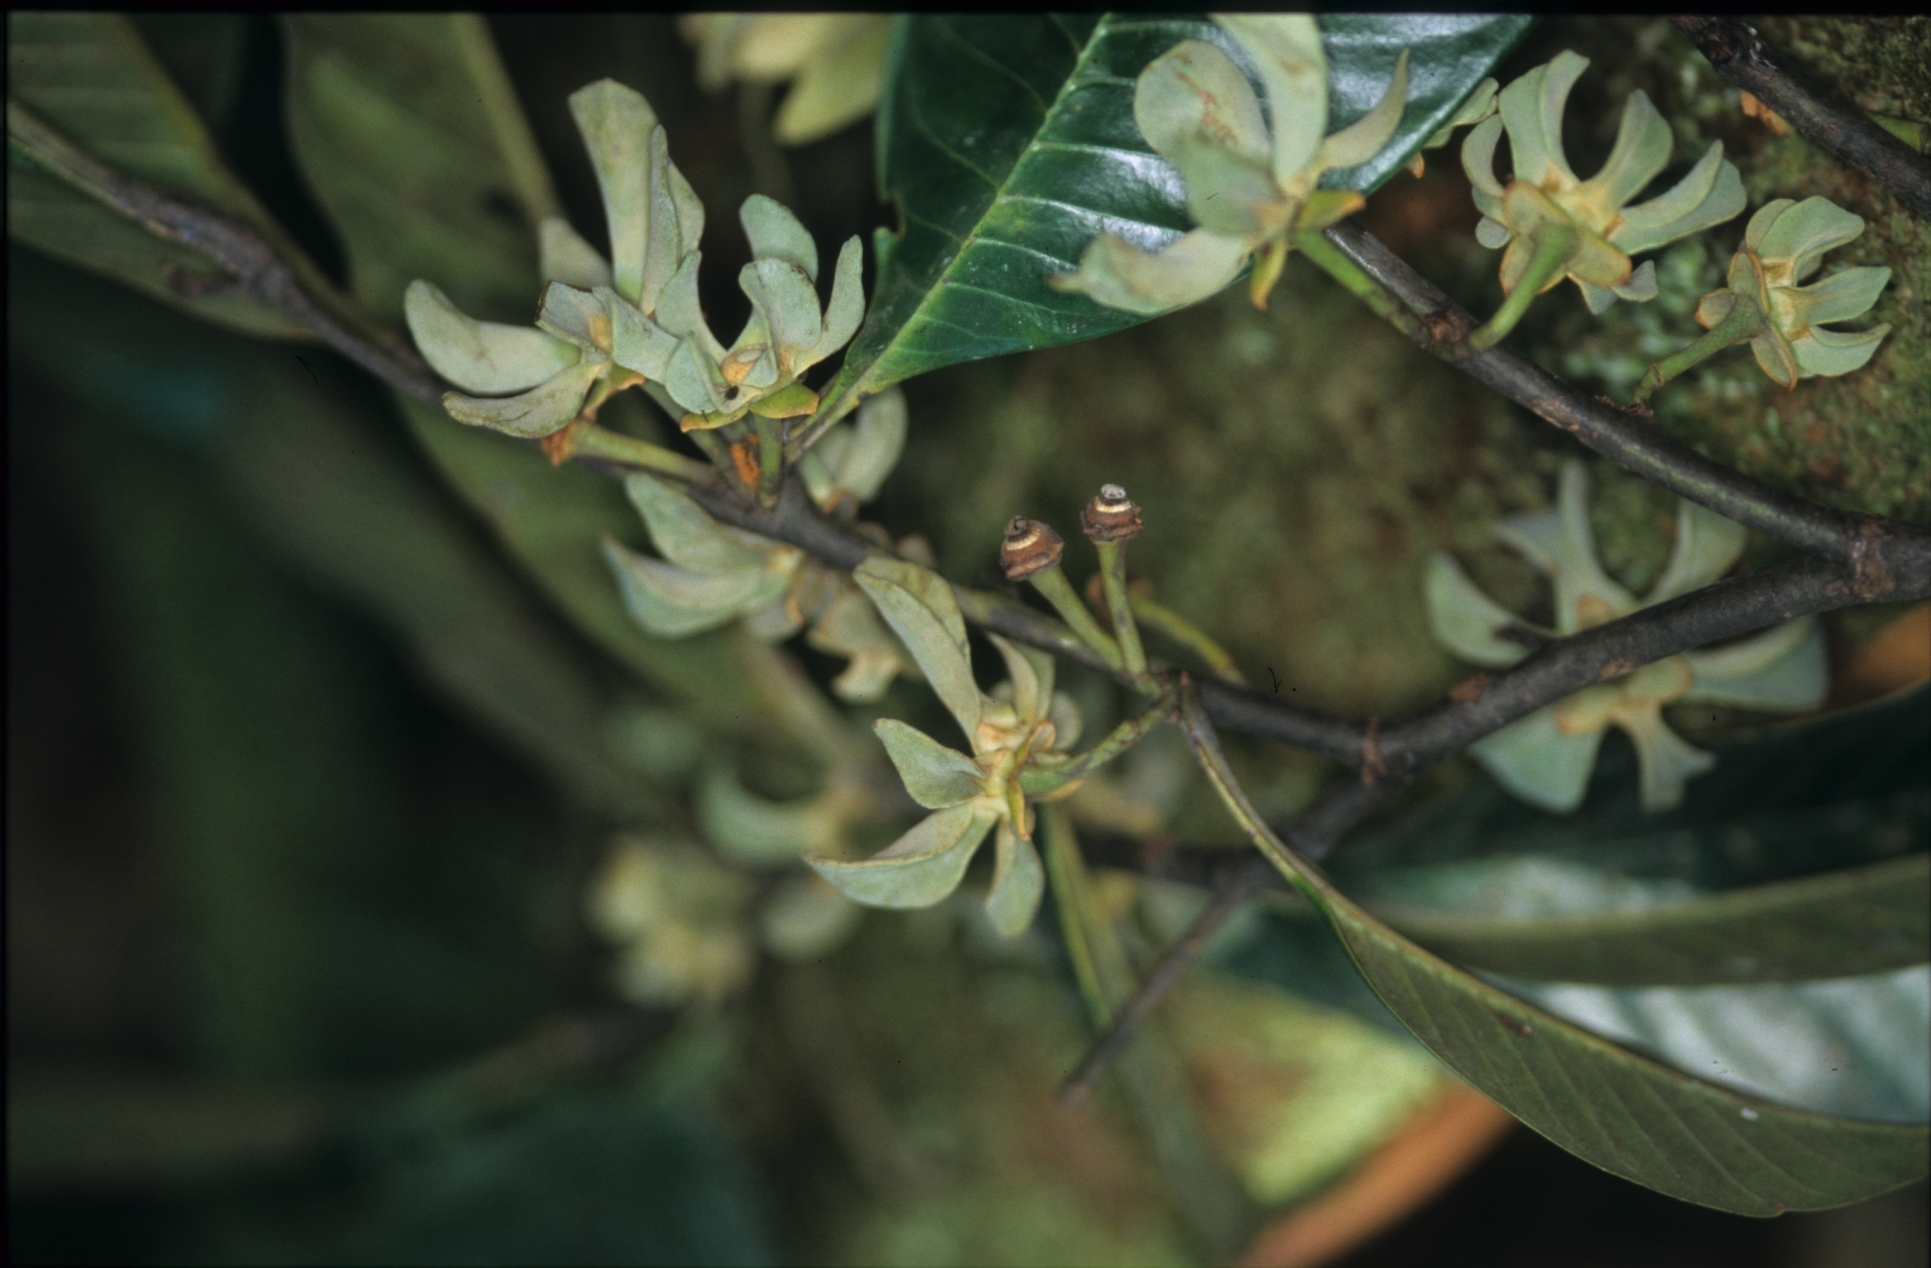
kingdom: Plantae
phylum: Tracheophyta
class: Magnoliopsida
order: Magnoliales
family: Annonaceae
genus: Guatteria
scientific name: Guatteria ramiflora
